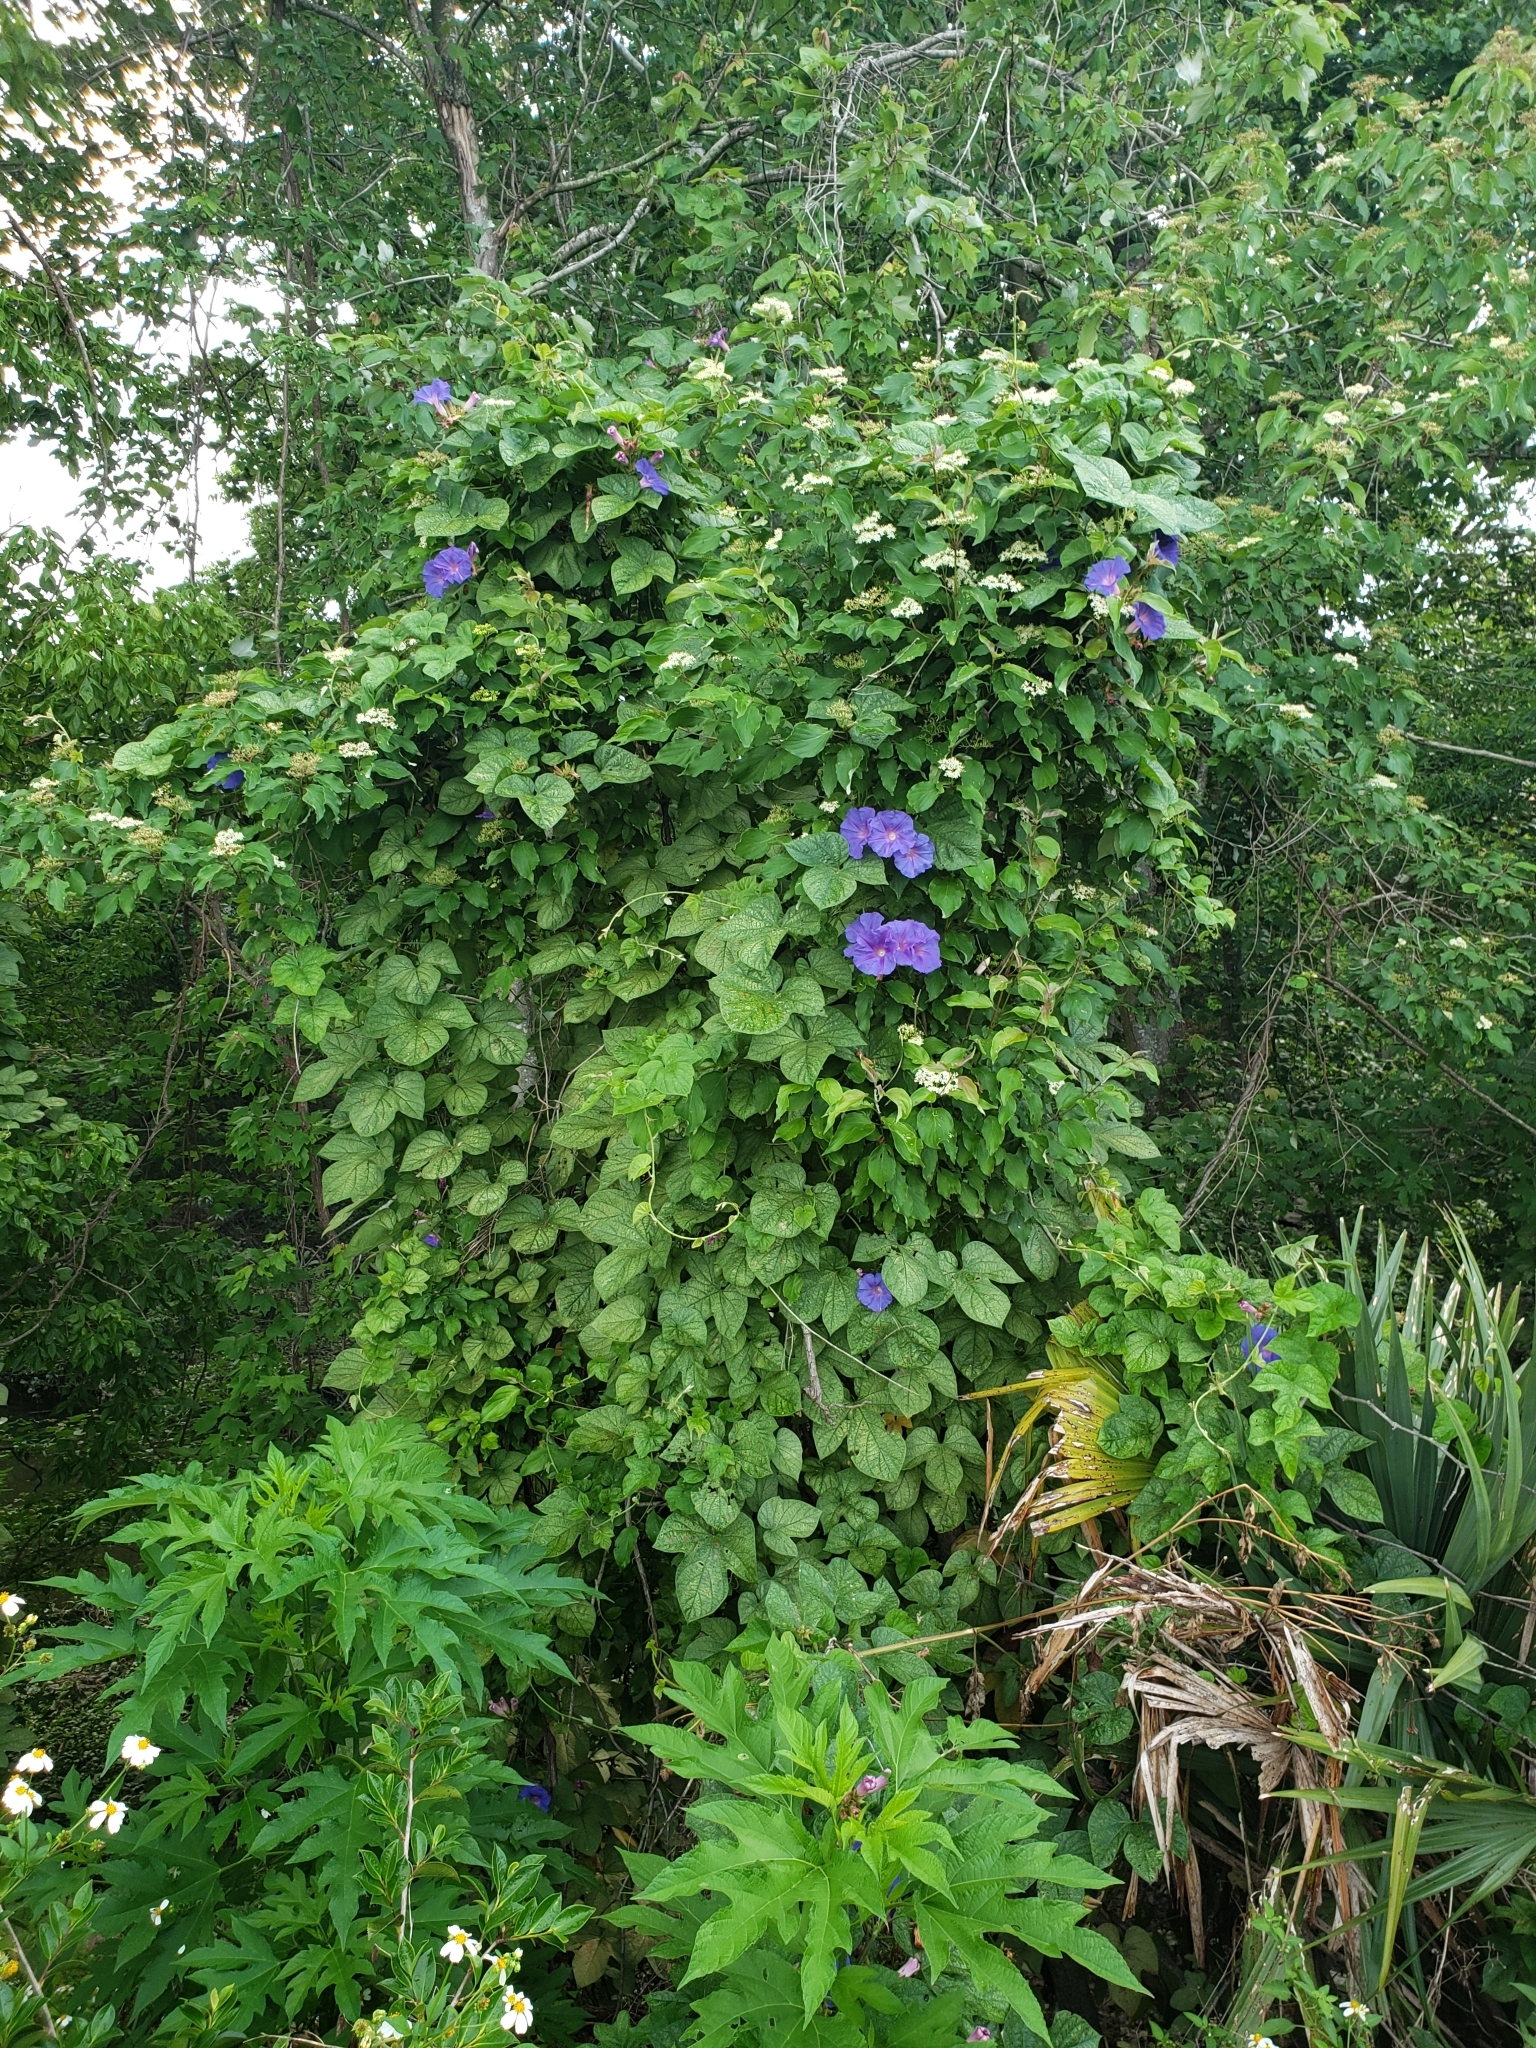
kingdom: Plantae
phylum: Tracheophyta
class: Magnoliopsida
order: Solanales
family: Convolvulaceae
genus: Ipomoea
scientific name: Ipomoea indica
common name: Blue dawnflower
